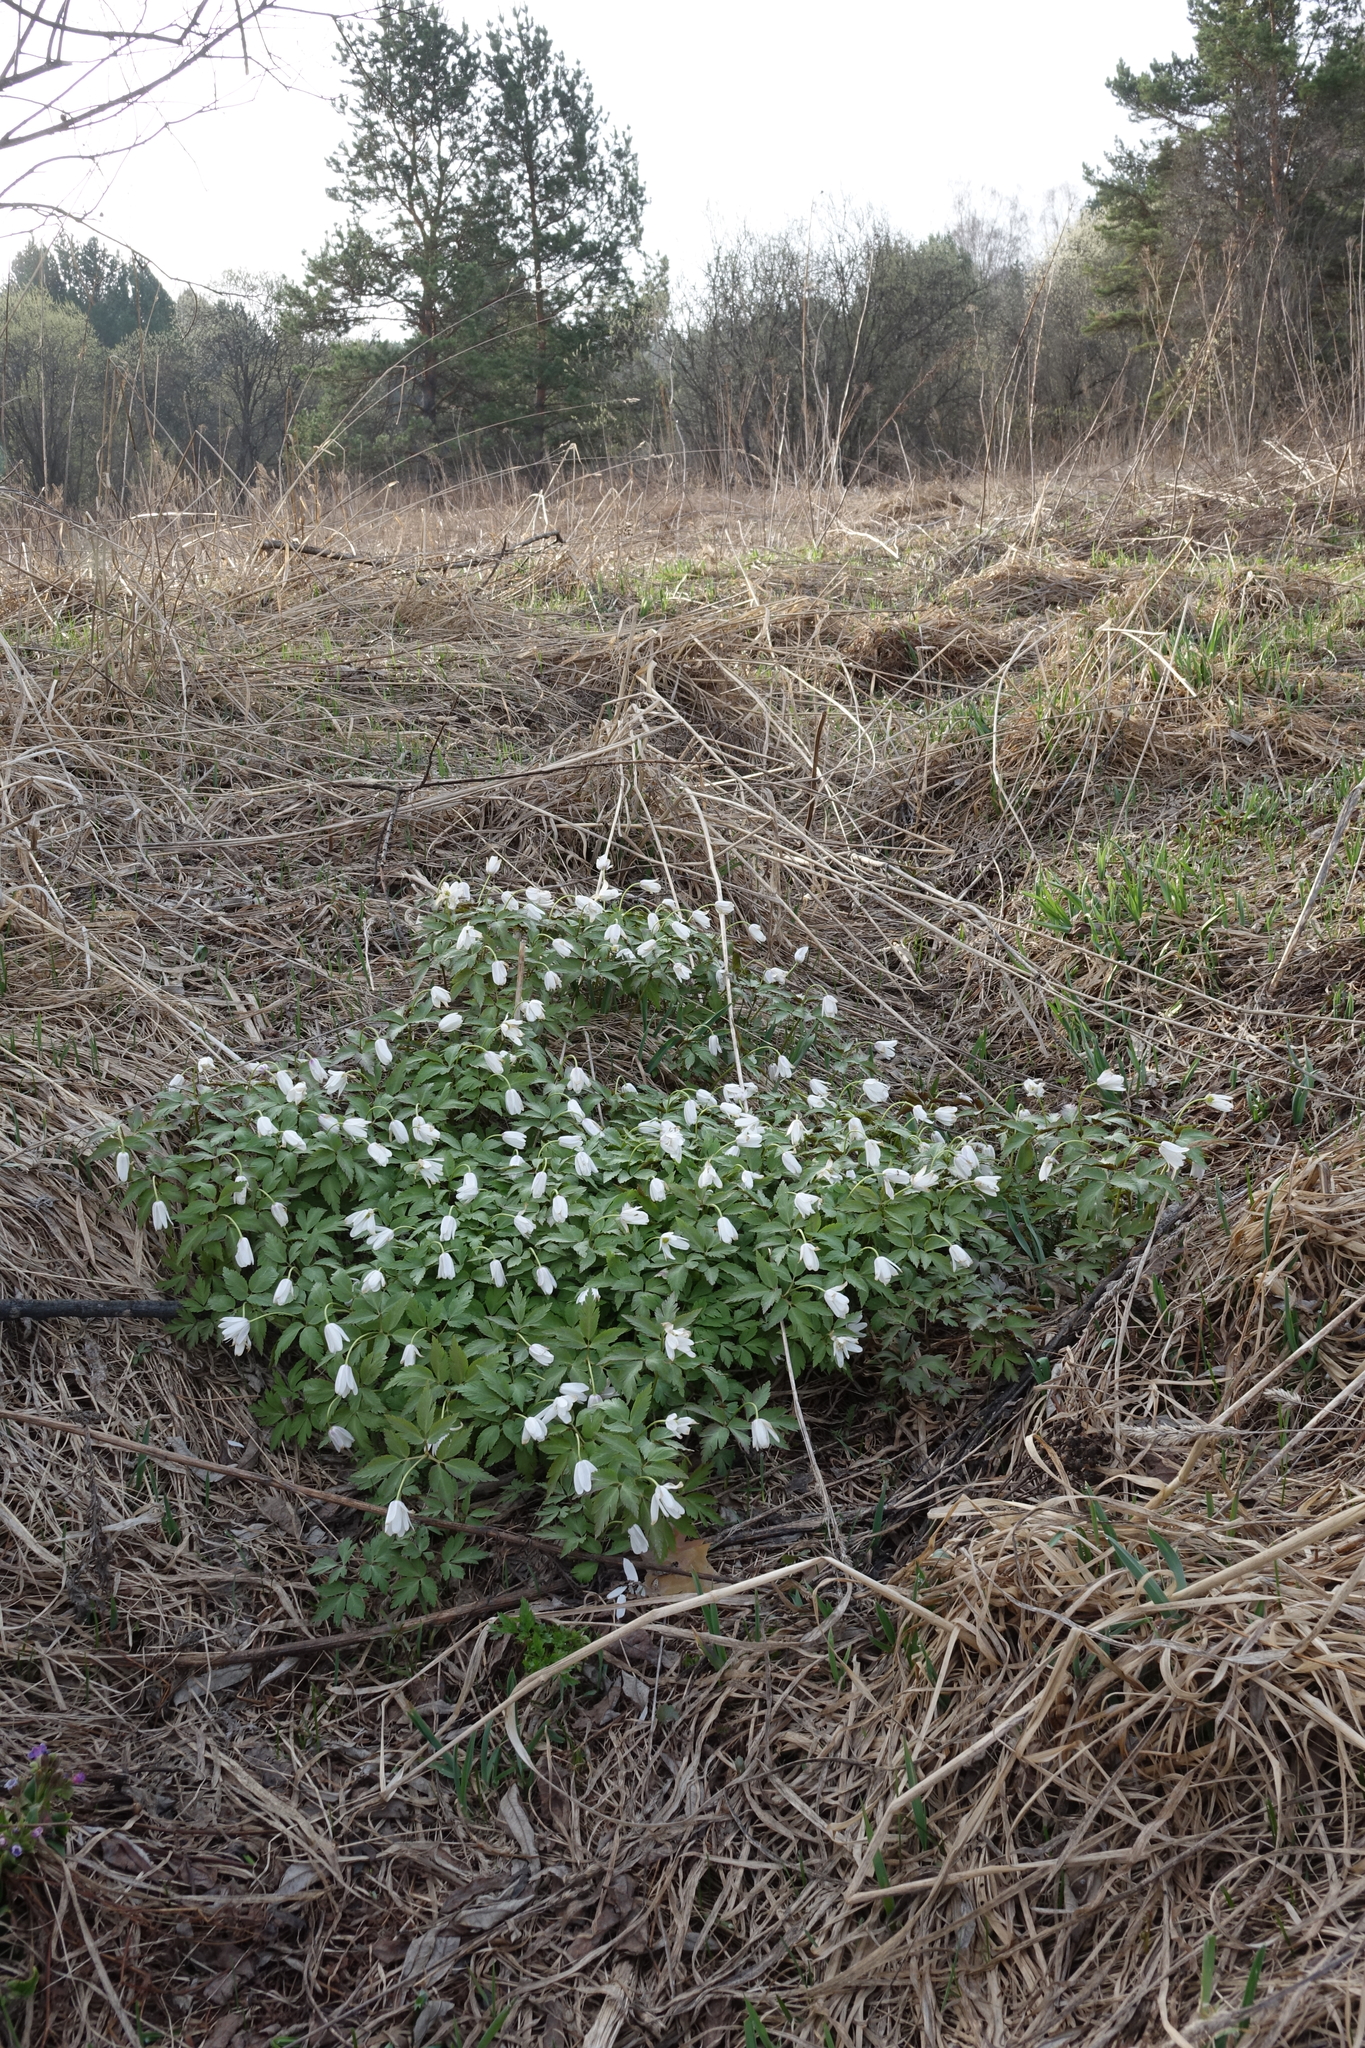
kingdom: Plantae
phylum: Tracheophyta
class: Magnoliopsida
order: Ranunculales
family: Ranunculaceae
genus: Anemone
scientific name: Anemone altaica
